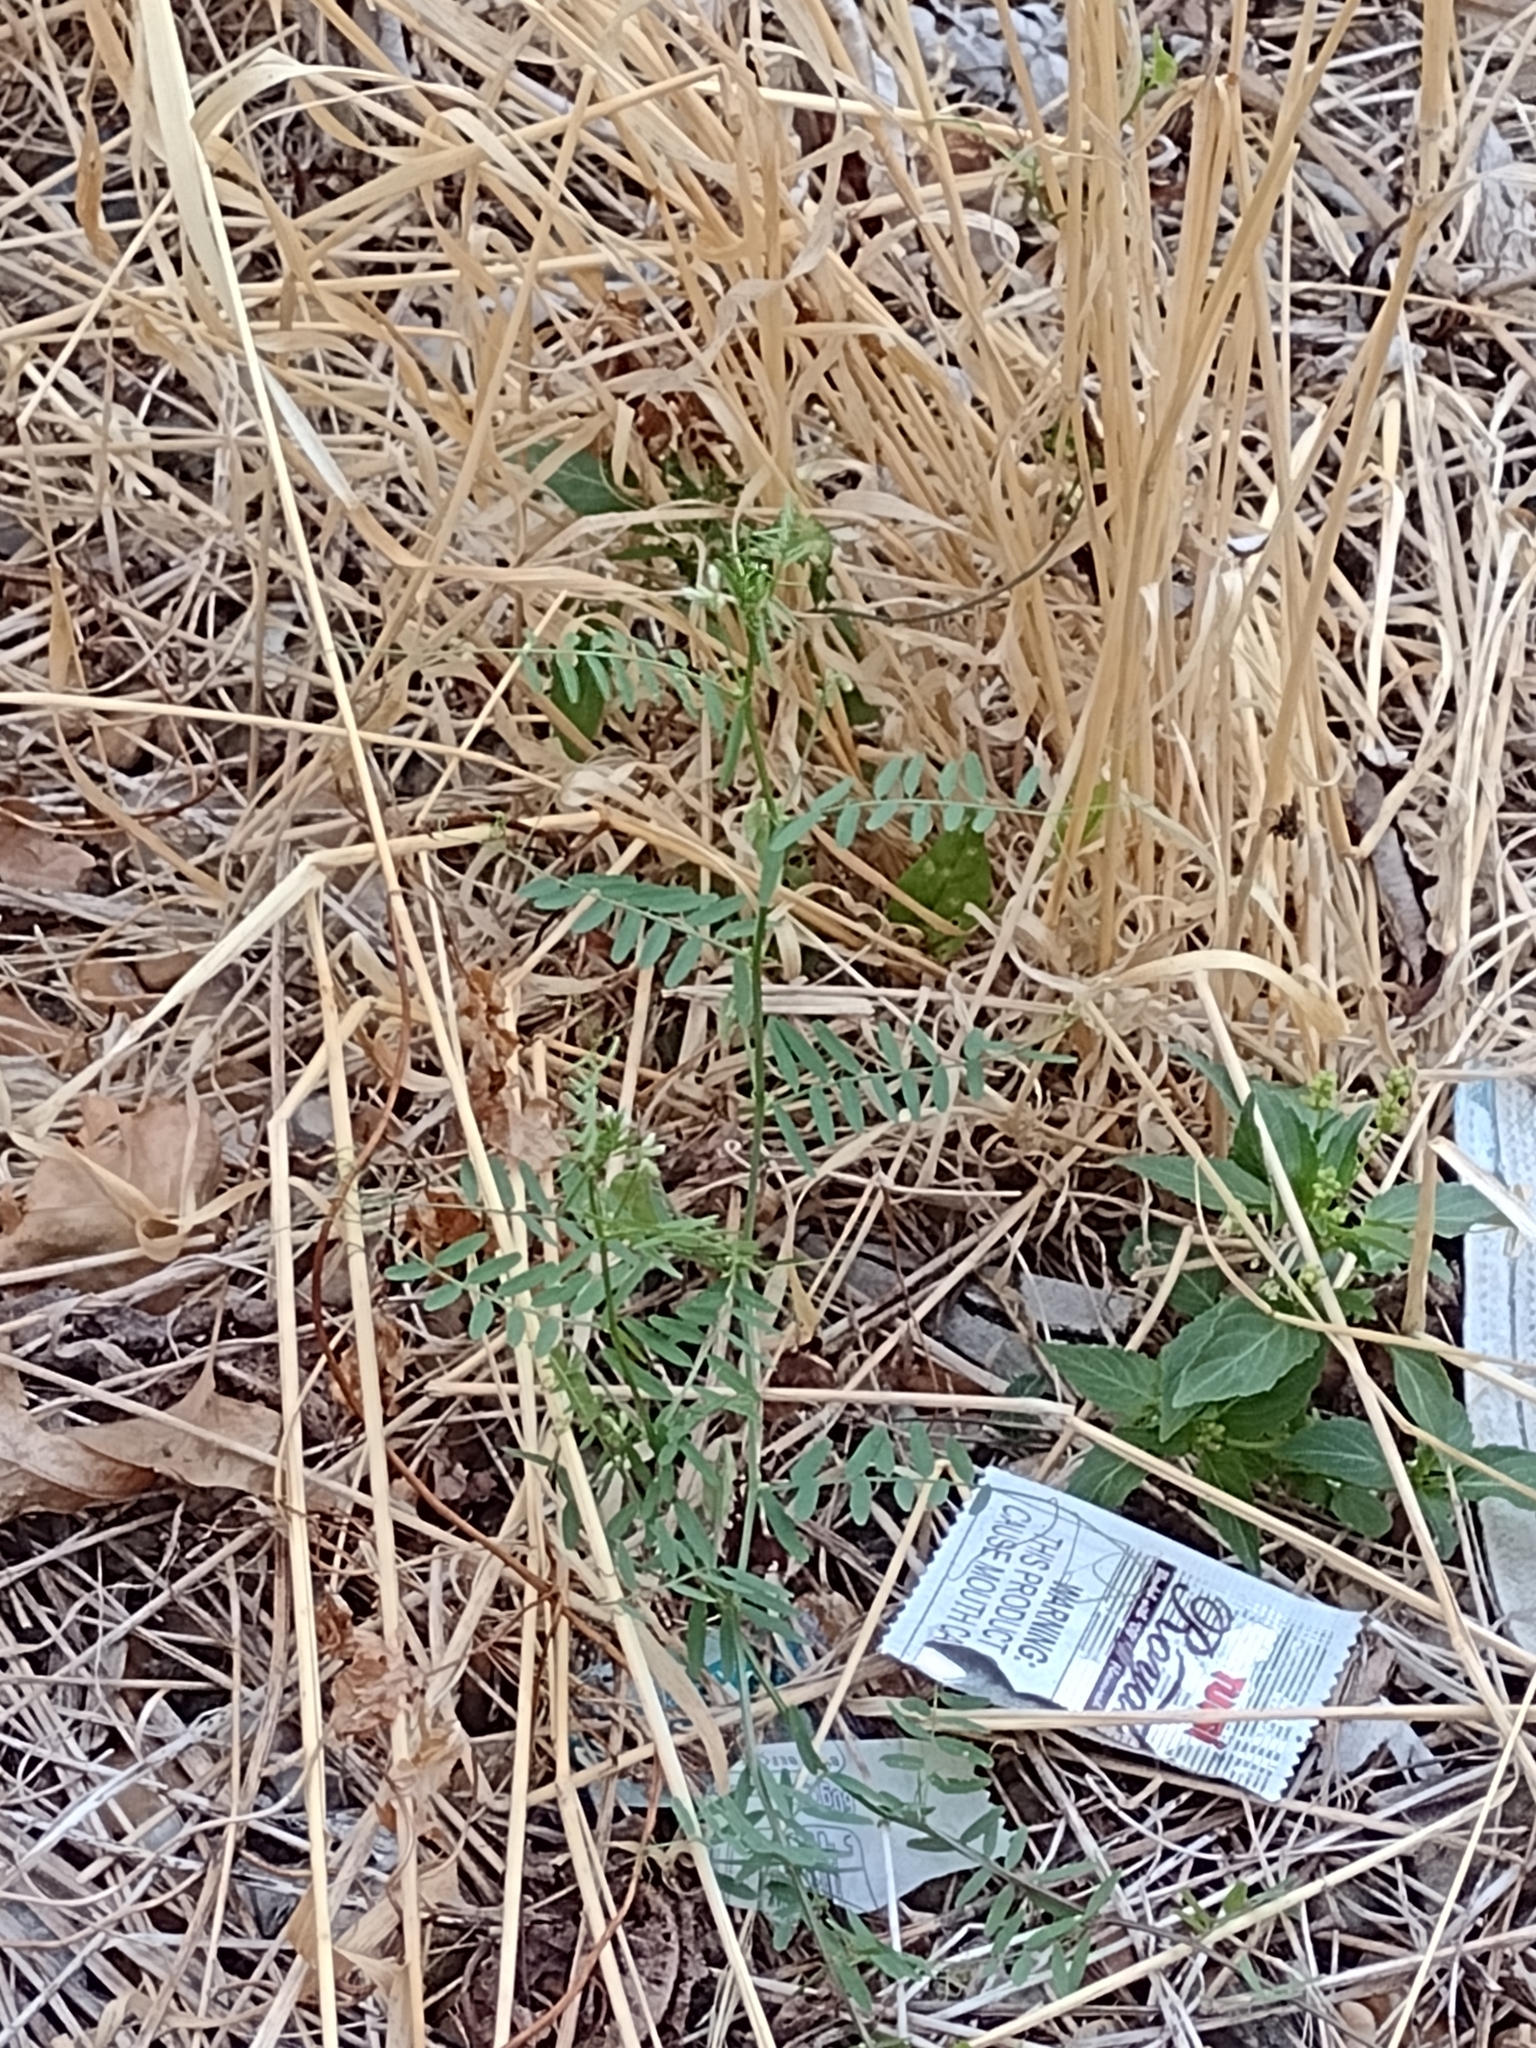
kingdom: Plantae
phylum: Tracheophyta
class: Magnoliopsida
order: Fabales
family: Fabaceae
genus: Vicia
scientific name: Vicia hirsuta
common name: Tiny vetch
